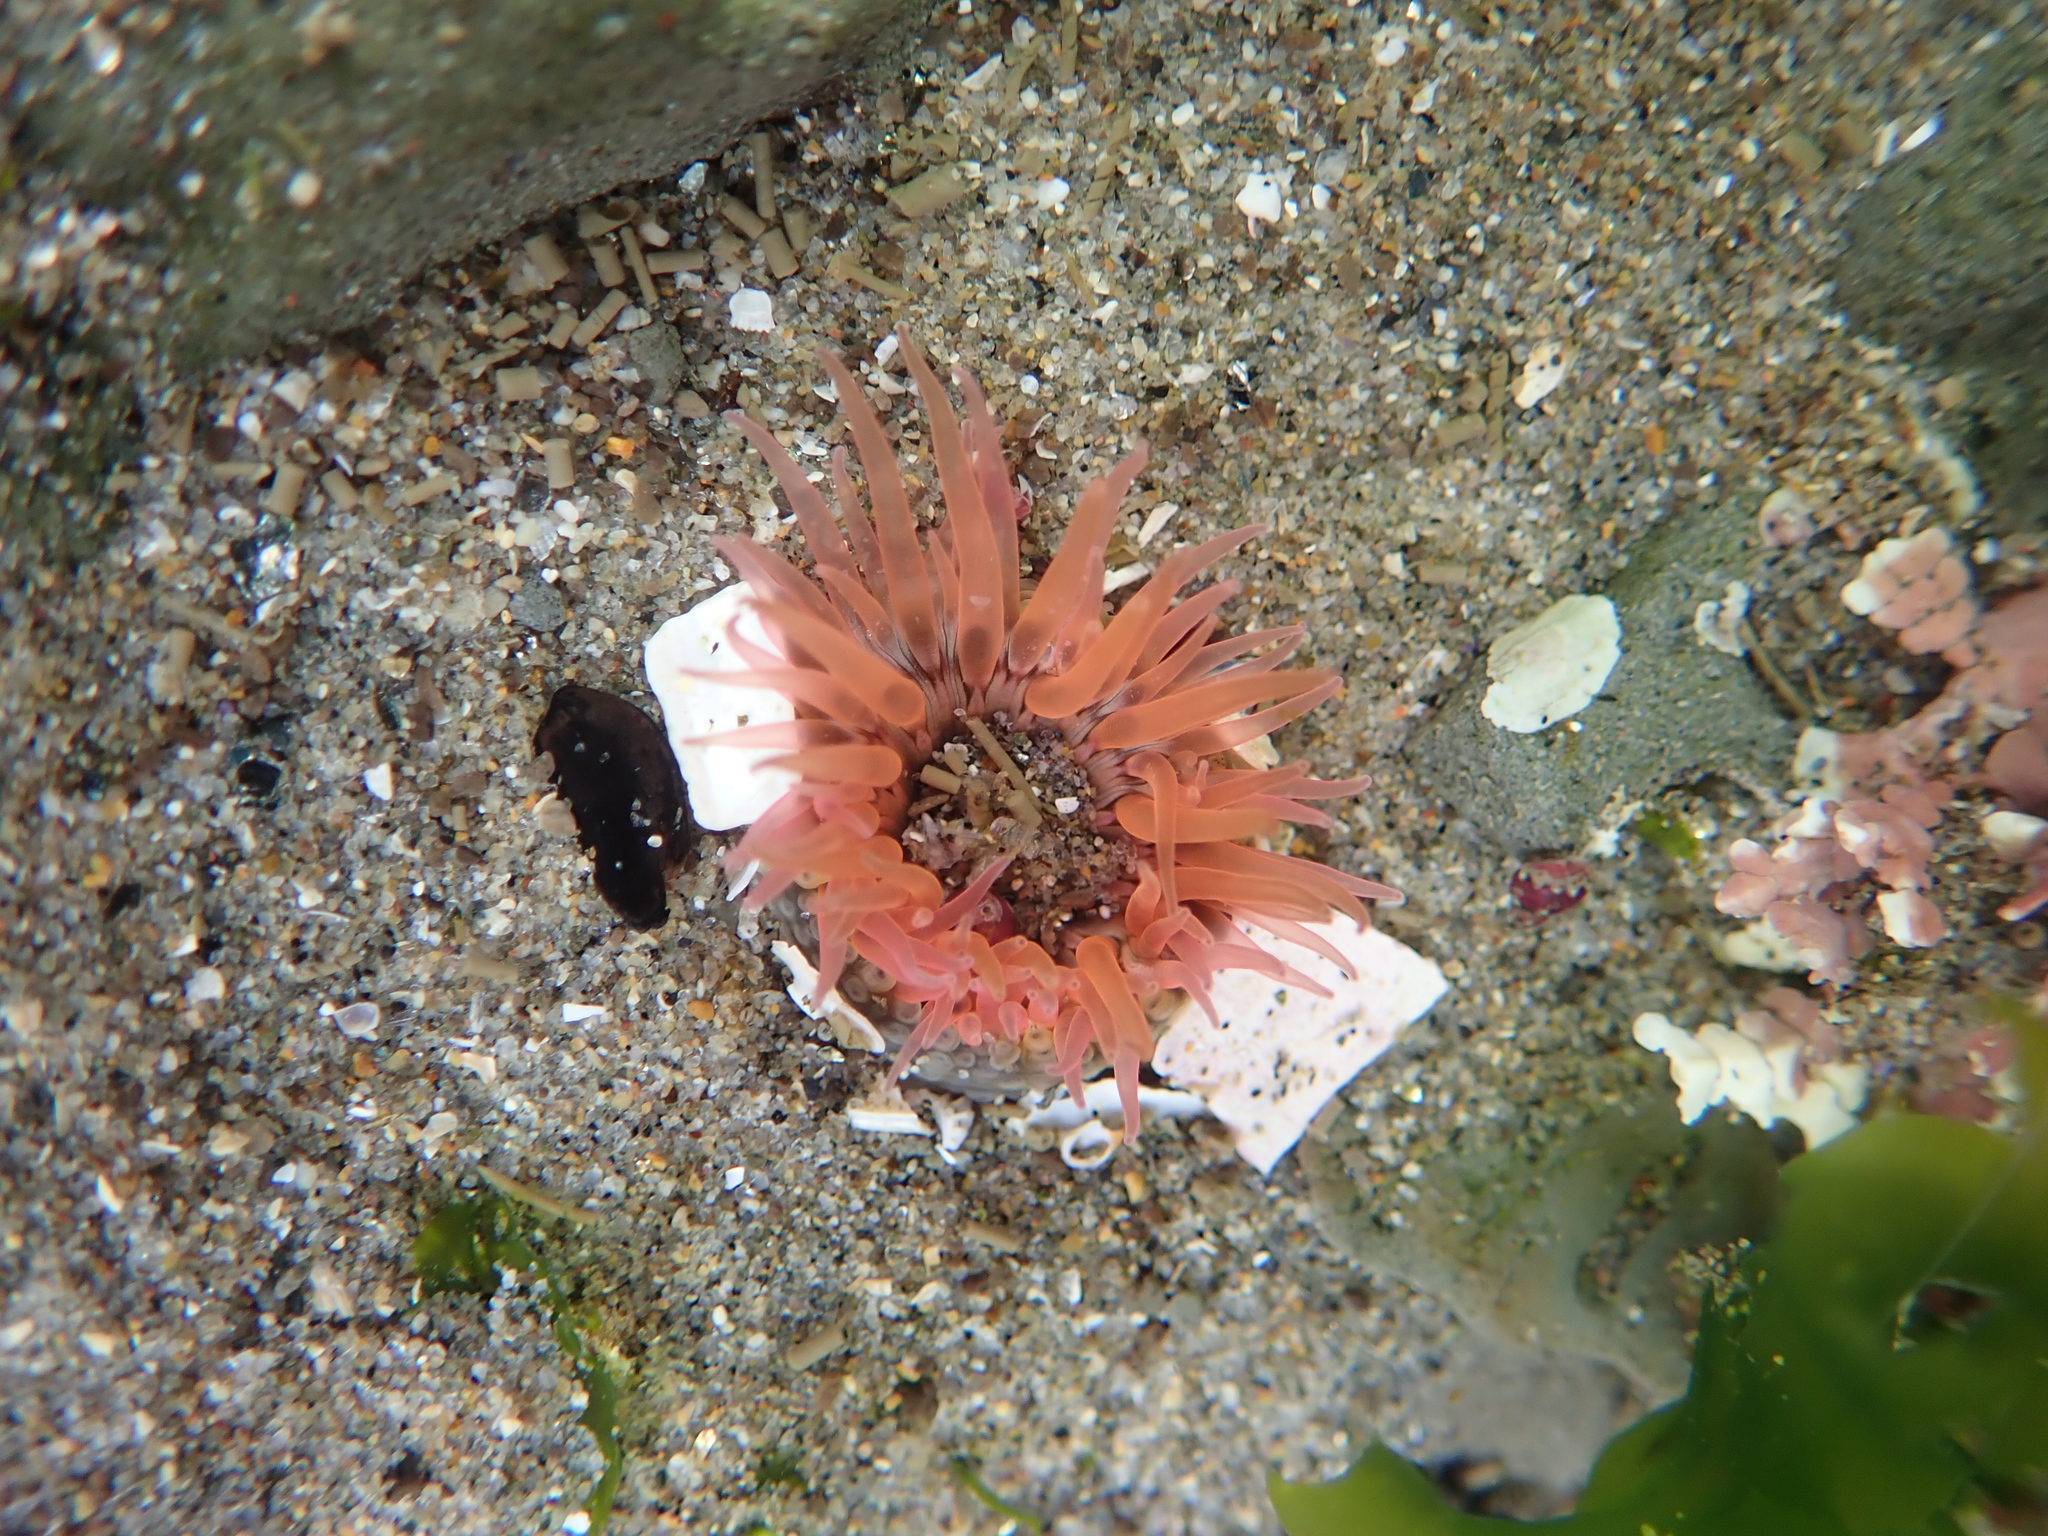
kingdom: Animalia
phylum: Cnidaria
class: Anthozoa
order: Actiniaria
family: Actiniidae
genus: Anthopleura
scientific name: Anthopleura artemisia
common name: Buried sea anemone
